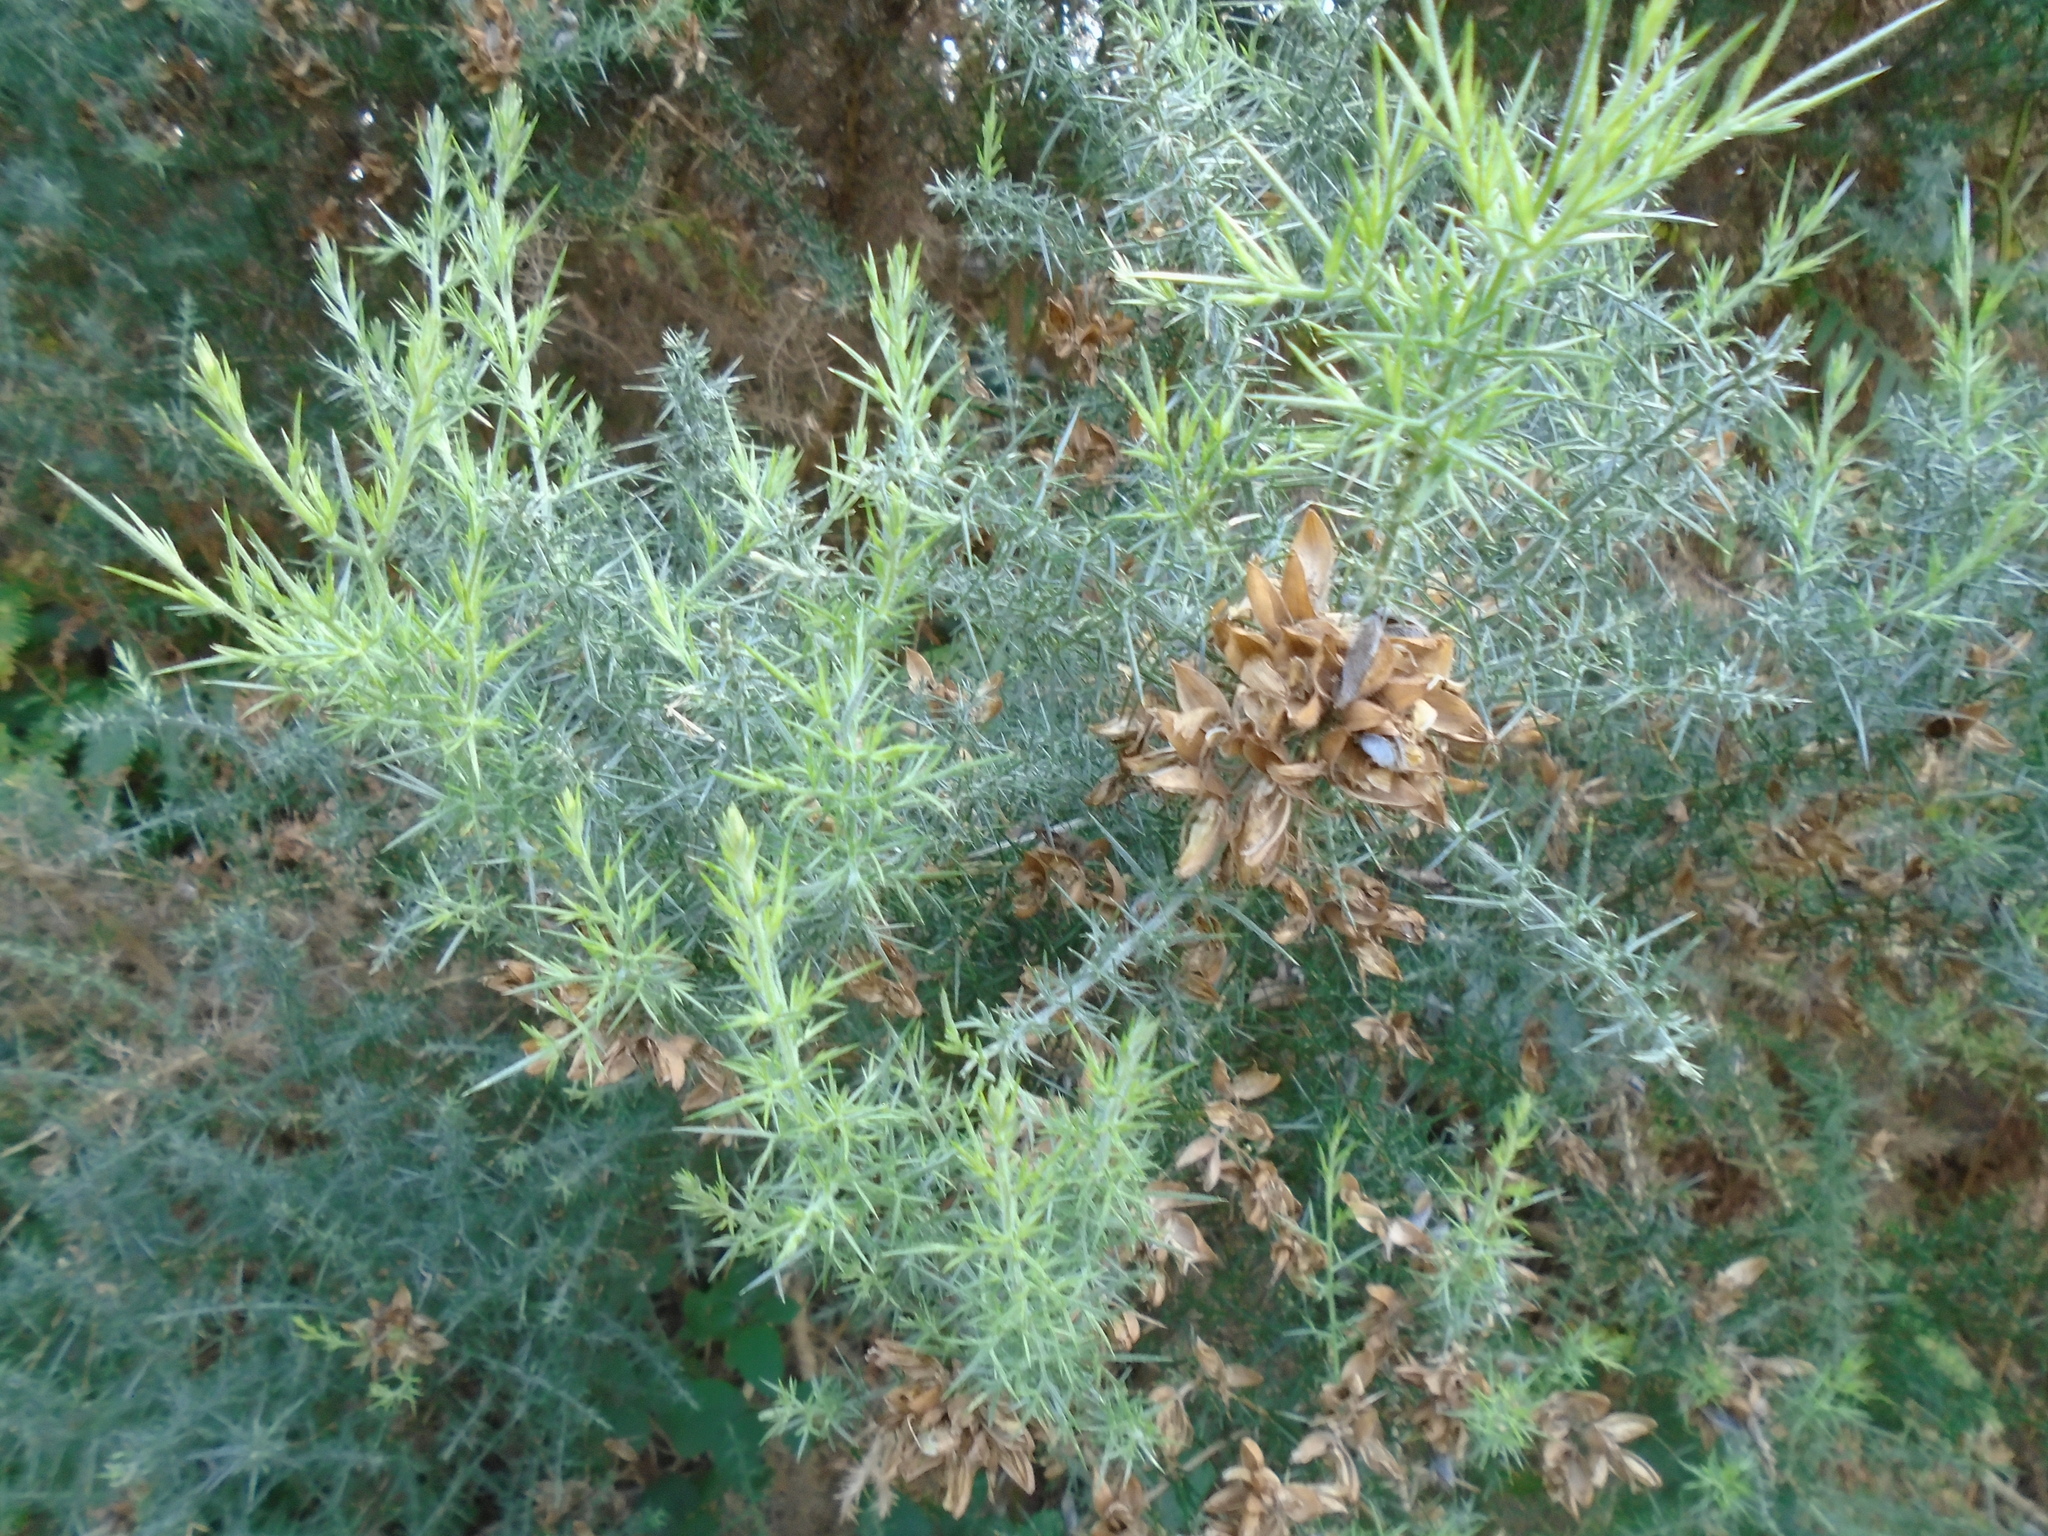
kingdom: Plantae
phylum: Tracheophyta
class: Magnoliopsida
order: Fabales
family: Fabaceae
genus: Ulex
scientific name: Ulex europaeus
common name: Common gorse
